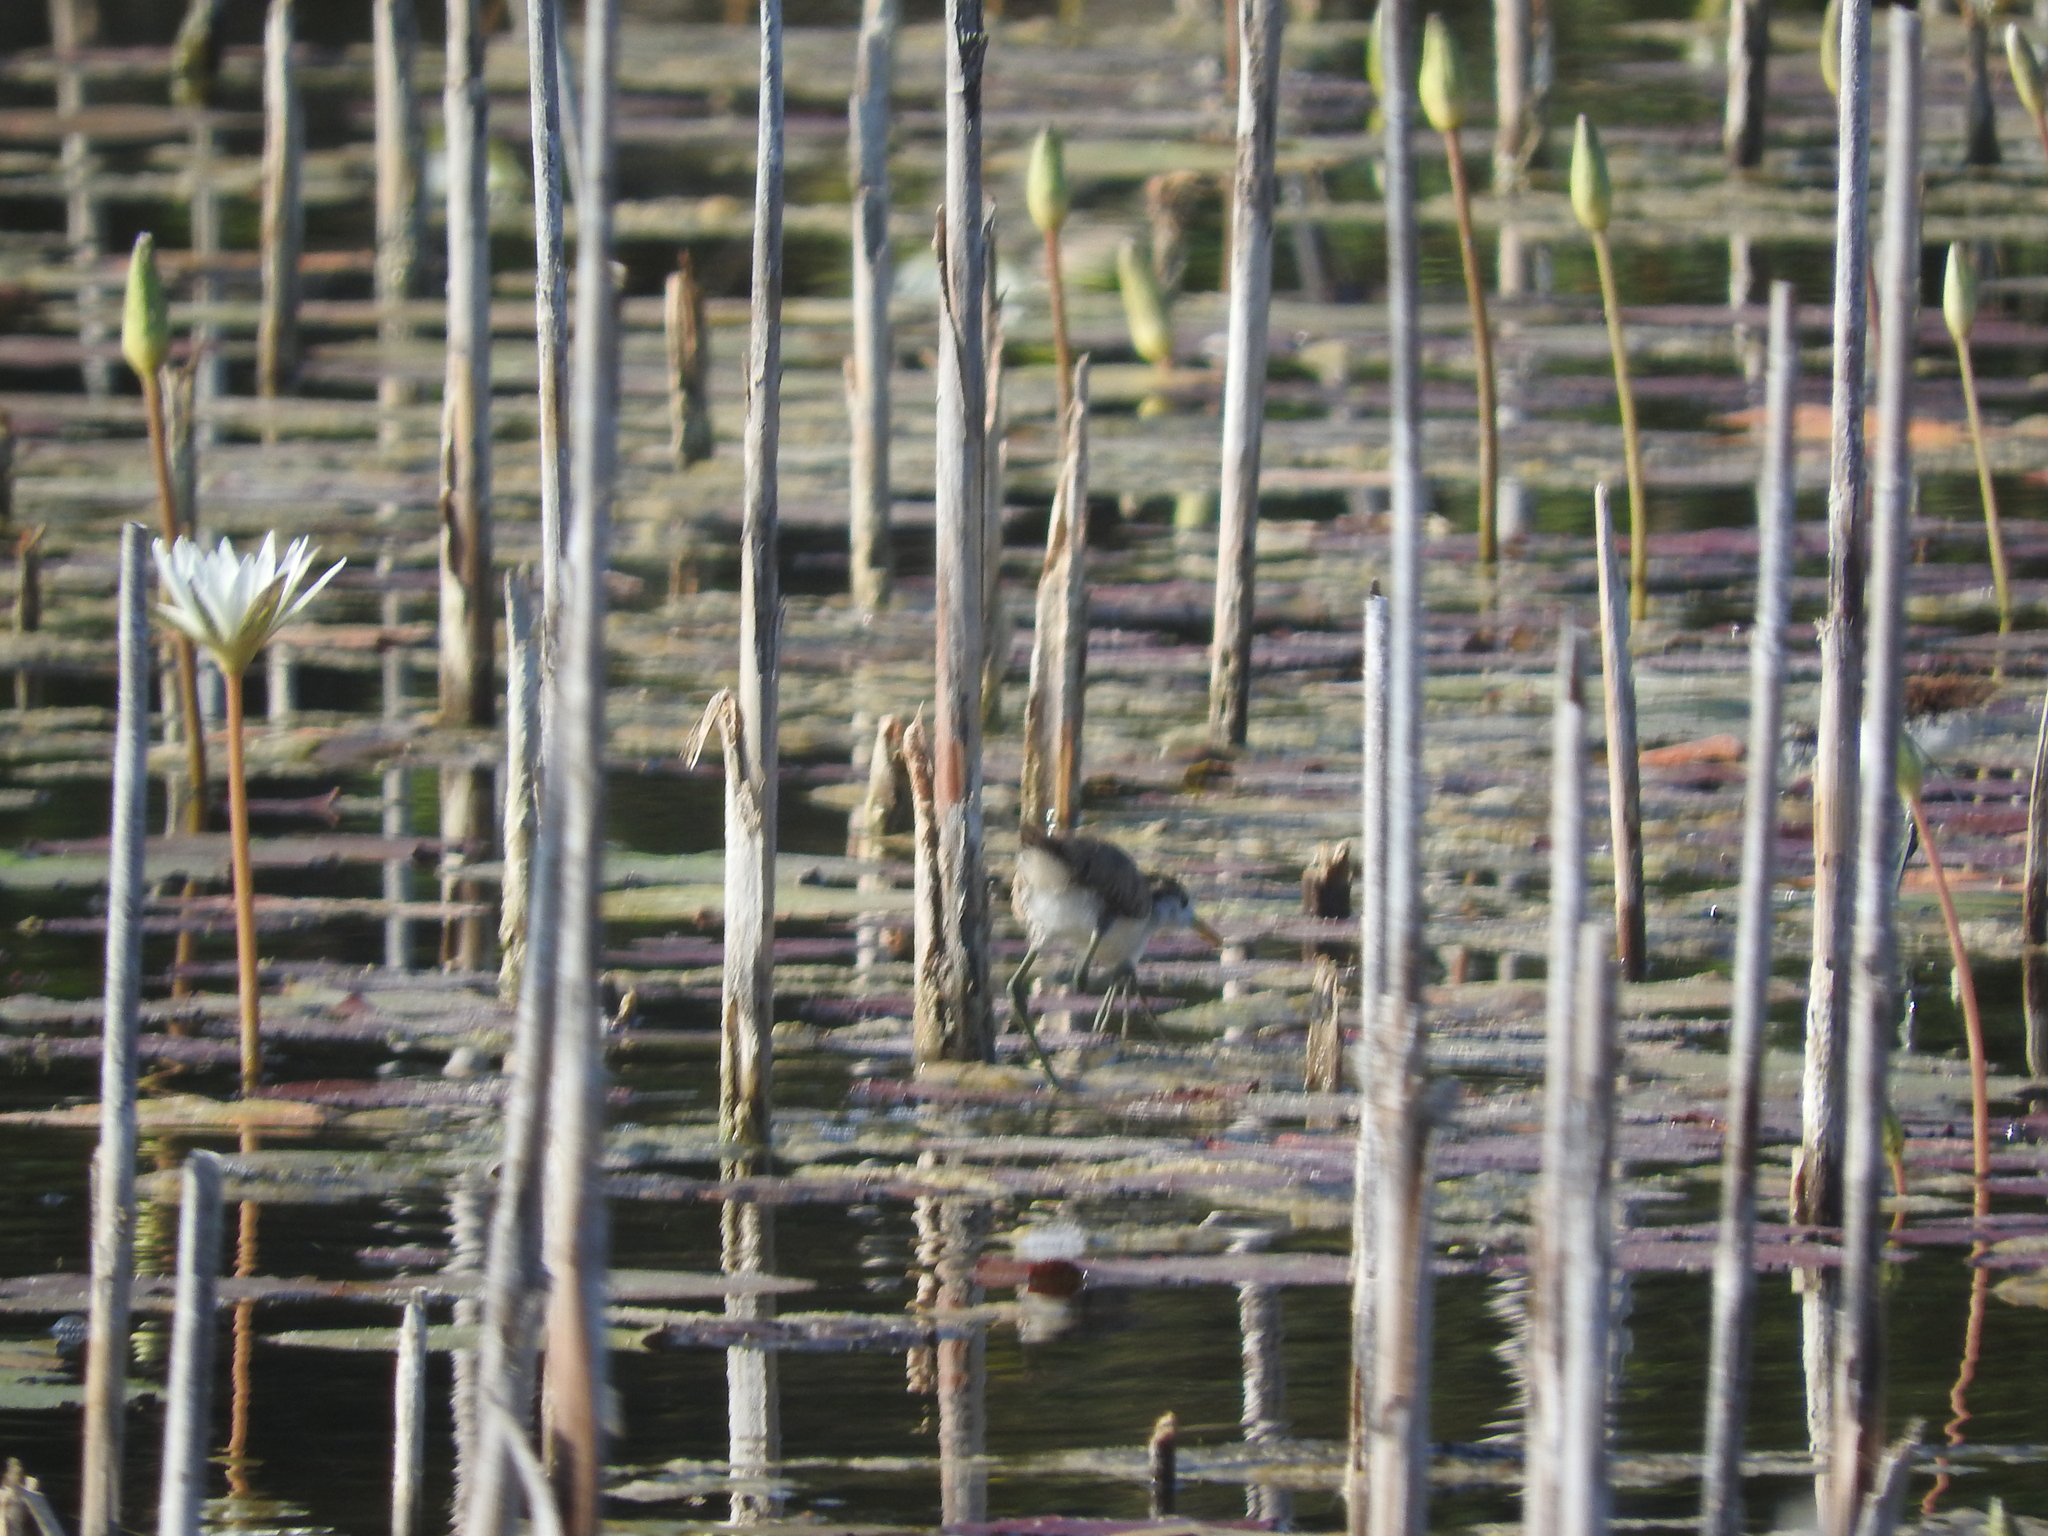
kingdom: Animalia
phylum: Chordata
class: Aves
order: Charadriiformes
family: Jacanidae
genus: Jacana
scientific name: Jacana spinosa
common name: Northern jacana
